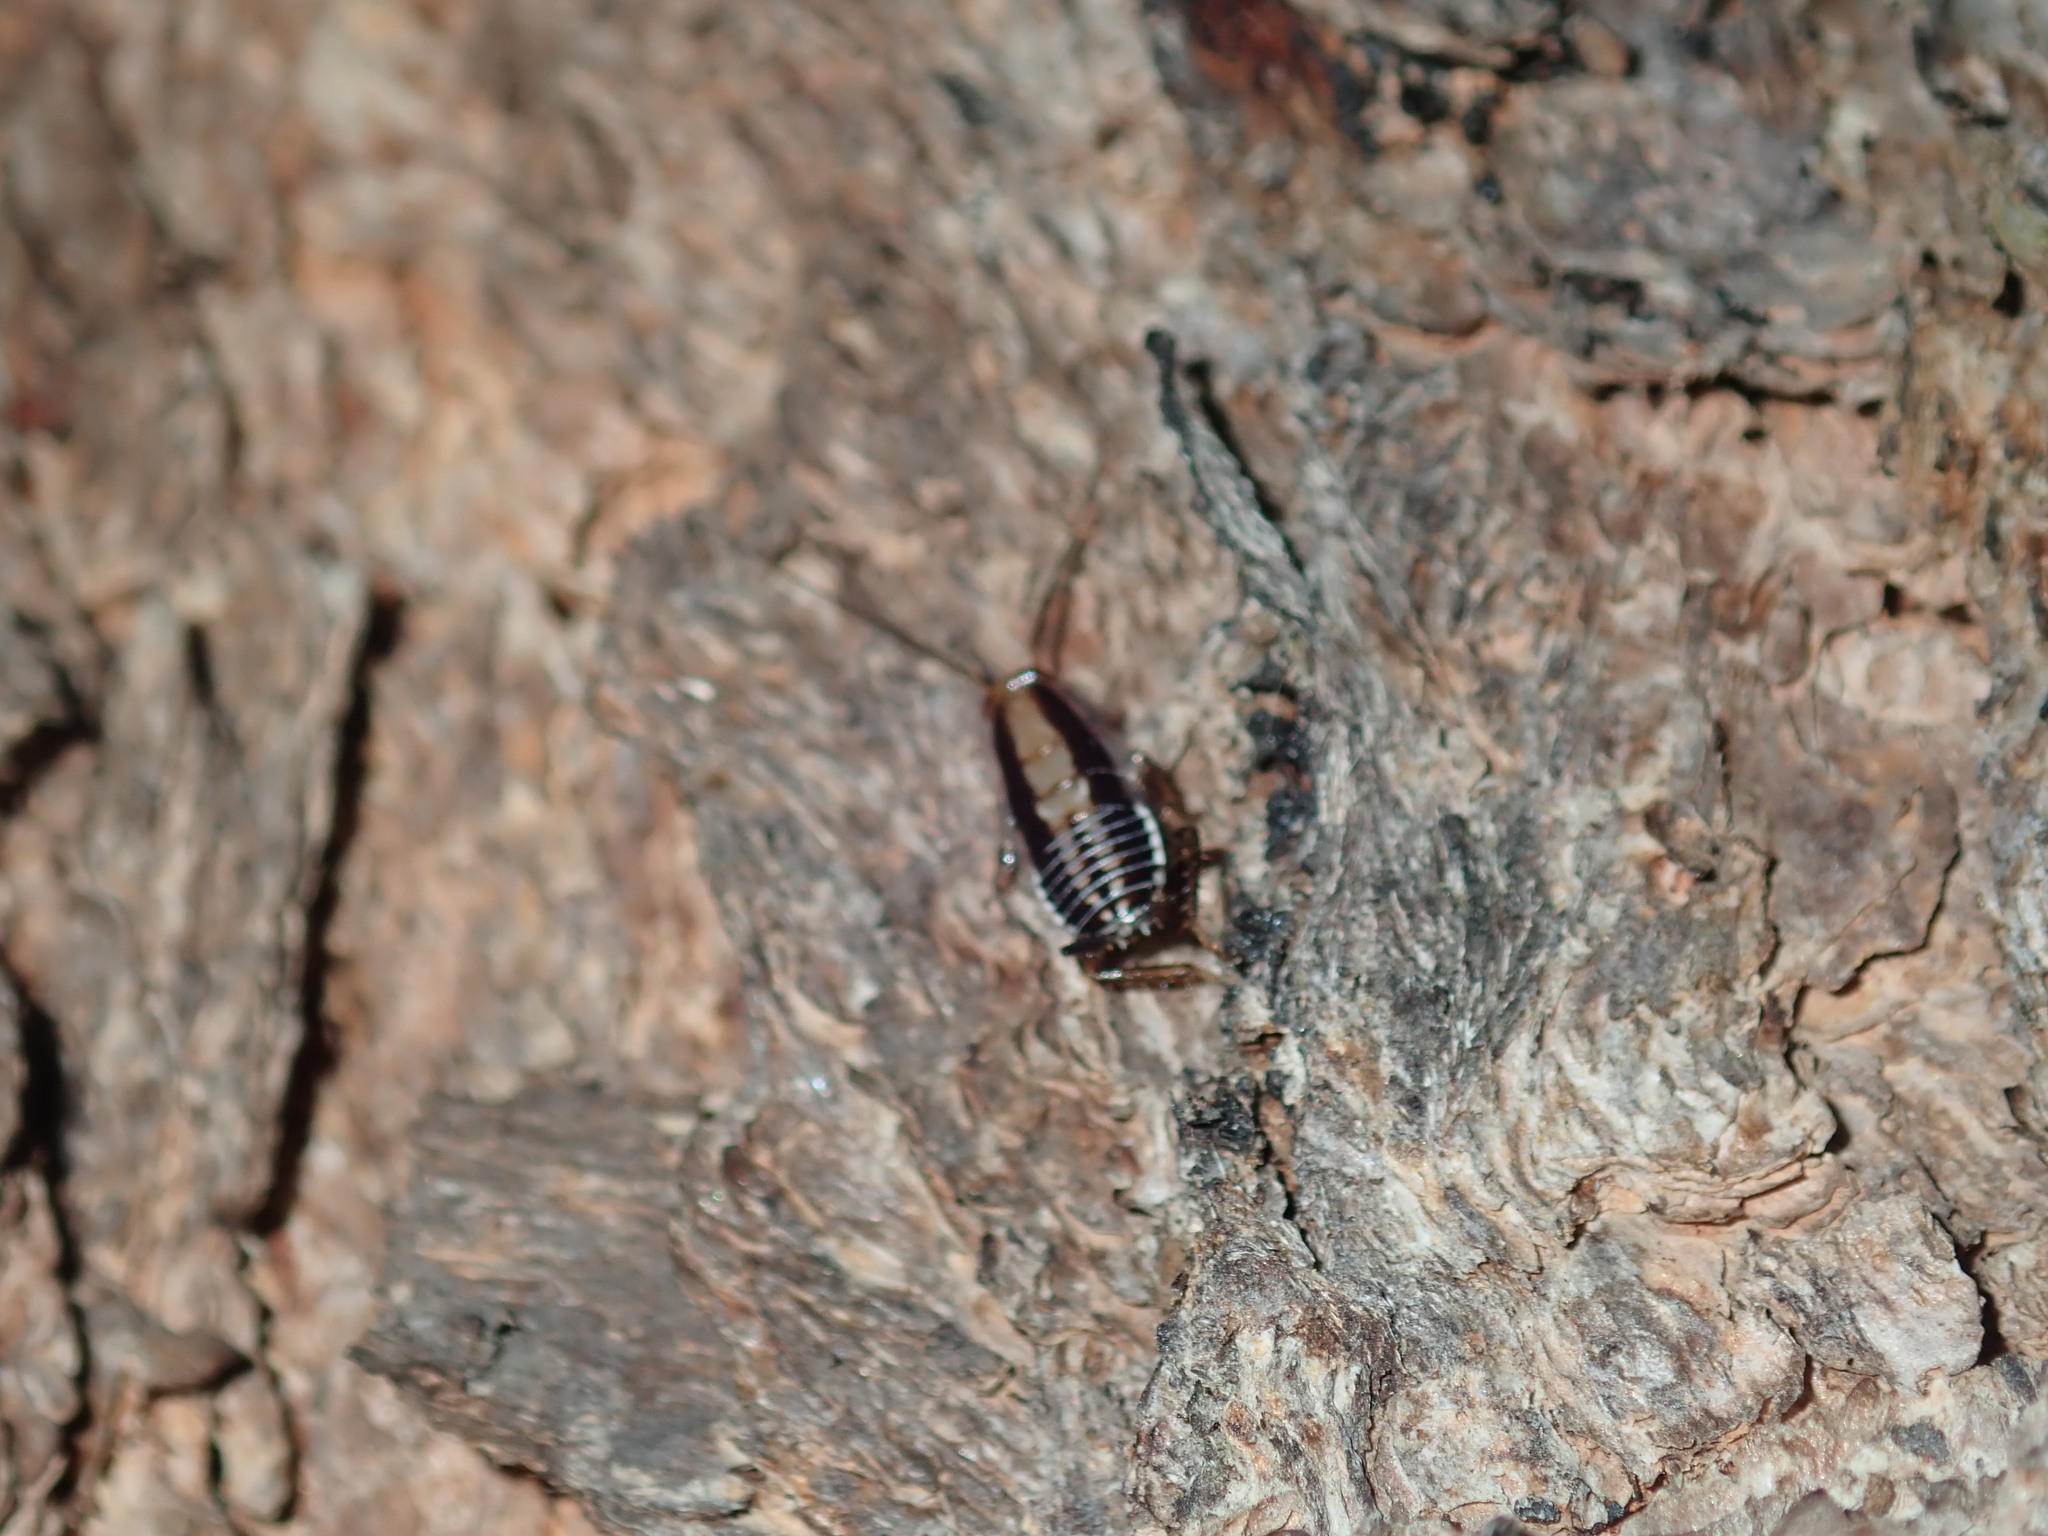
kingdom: Animalia
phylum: Arthropoda
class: Insecta
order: Blattodea
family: Ectobiidae
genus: Hensaussurea
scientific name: Hensaussurea halmaturina
